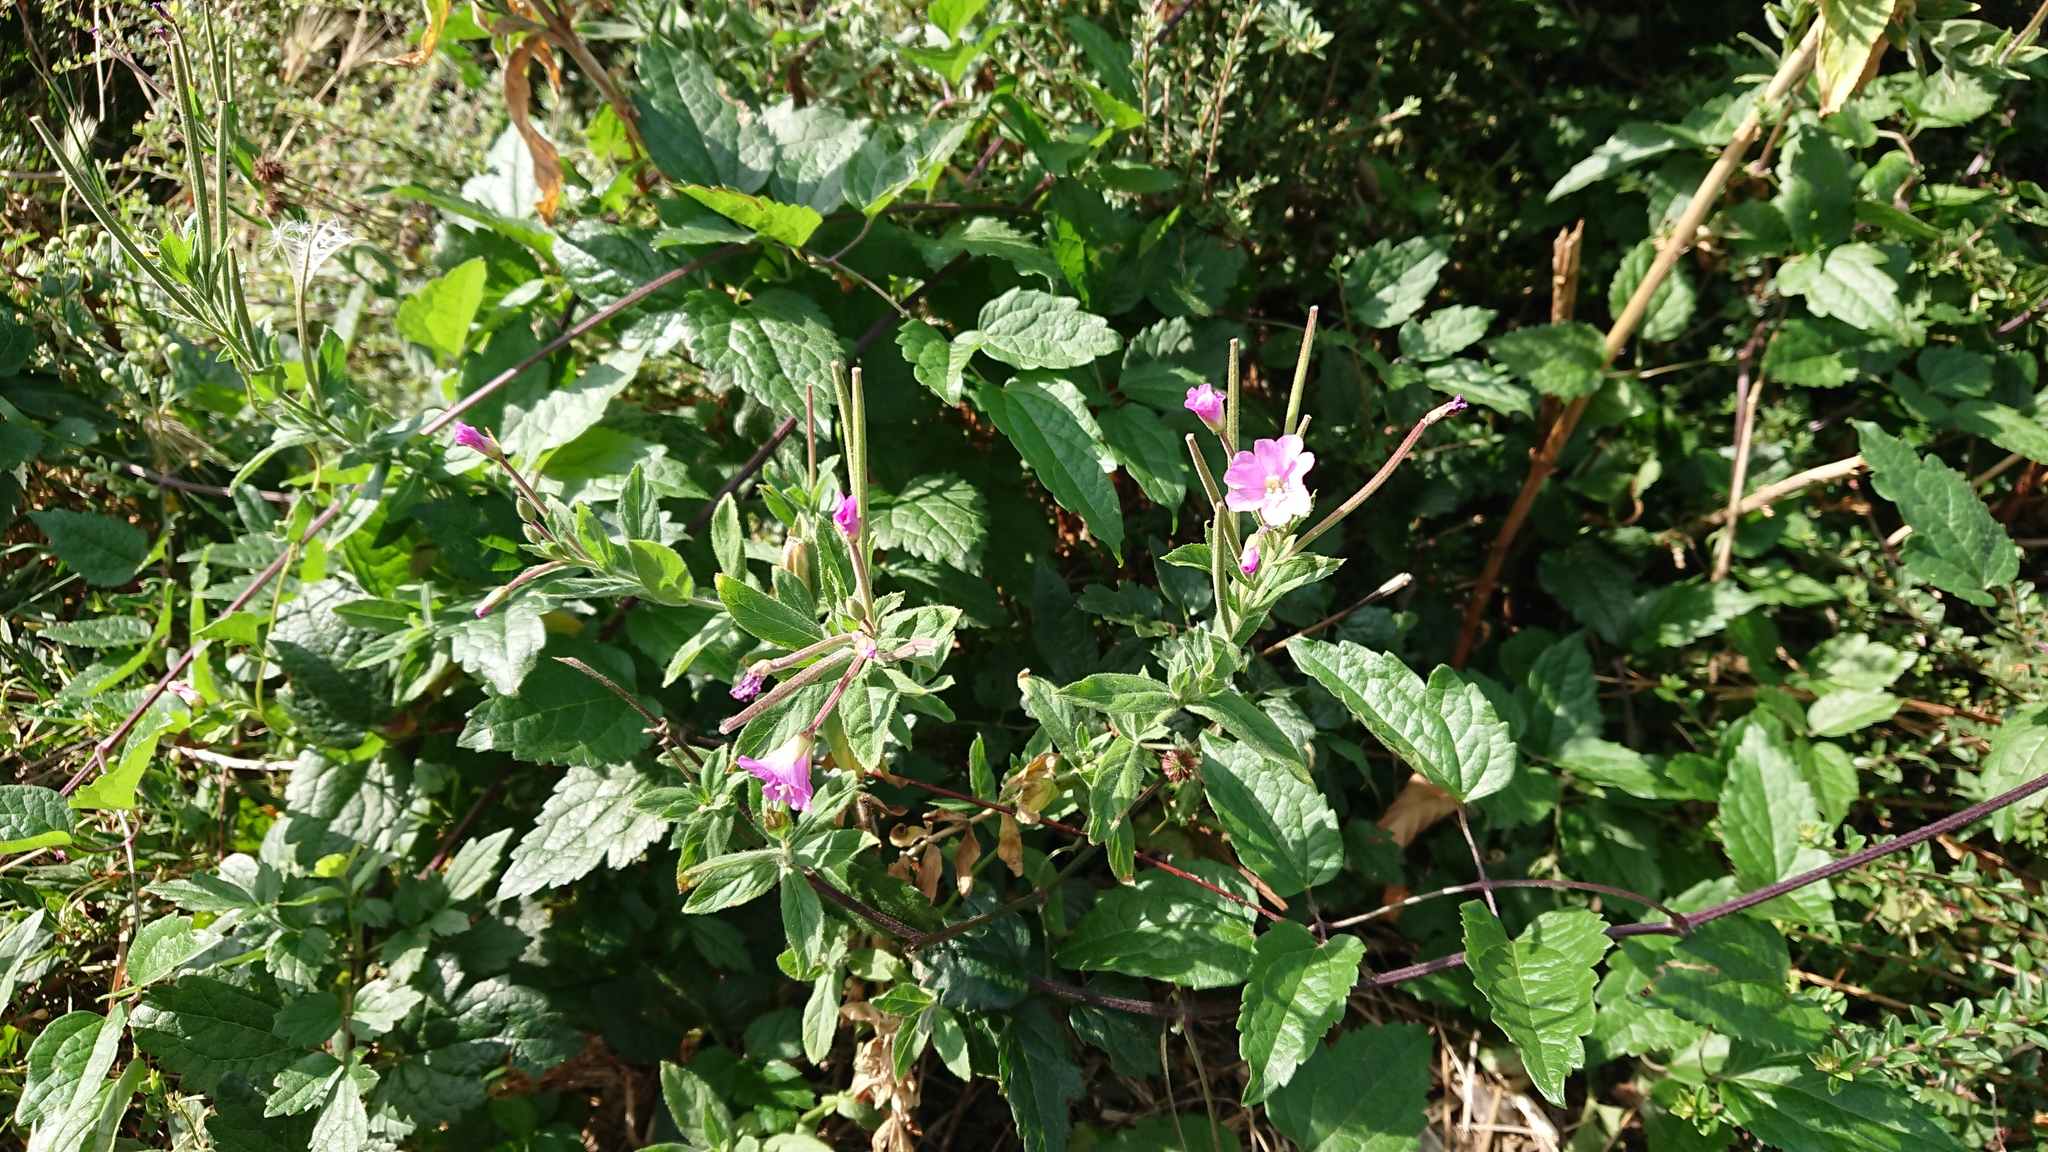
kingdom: Plantae
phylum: Tracheophyta
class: Magnoliopsida
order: Myrtales
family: Onagraceae
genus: Epilobium
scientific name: Epilobium hirsutum
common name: Great willowherb
